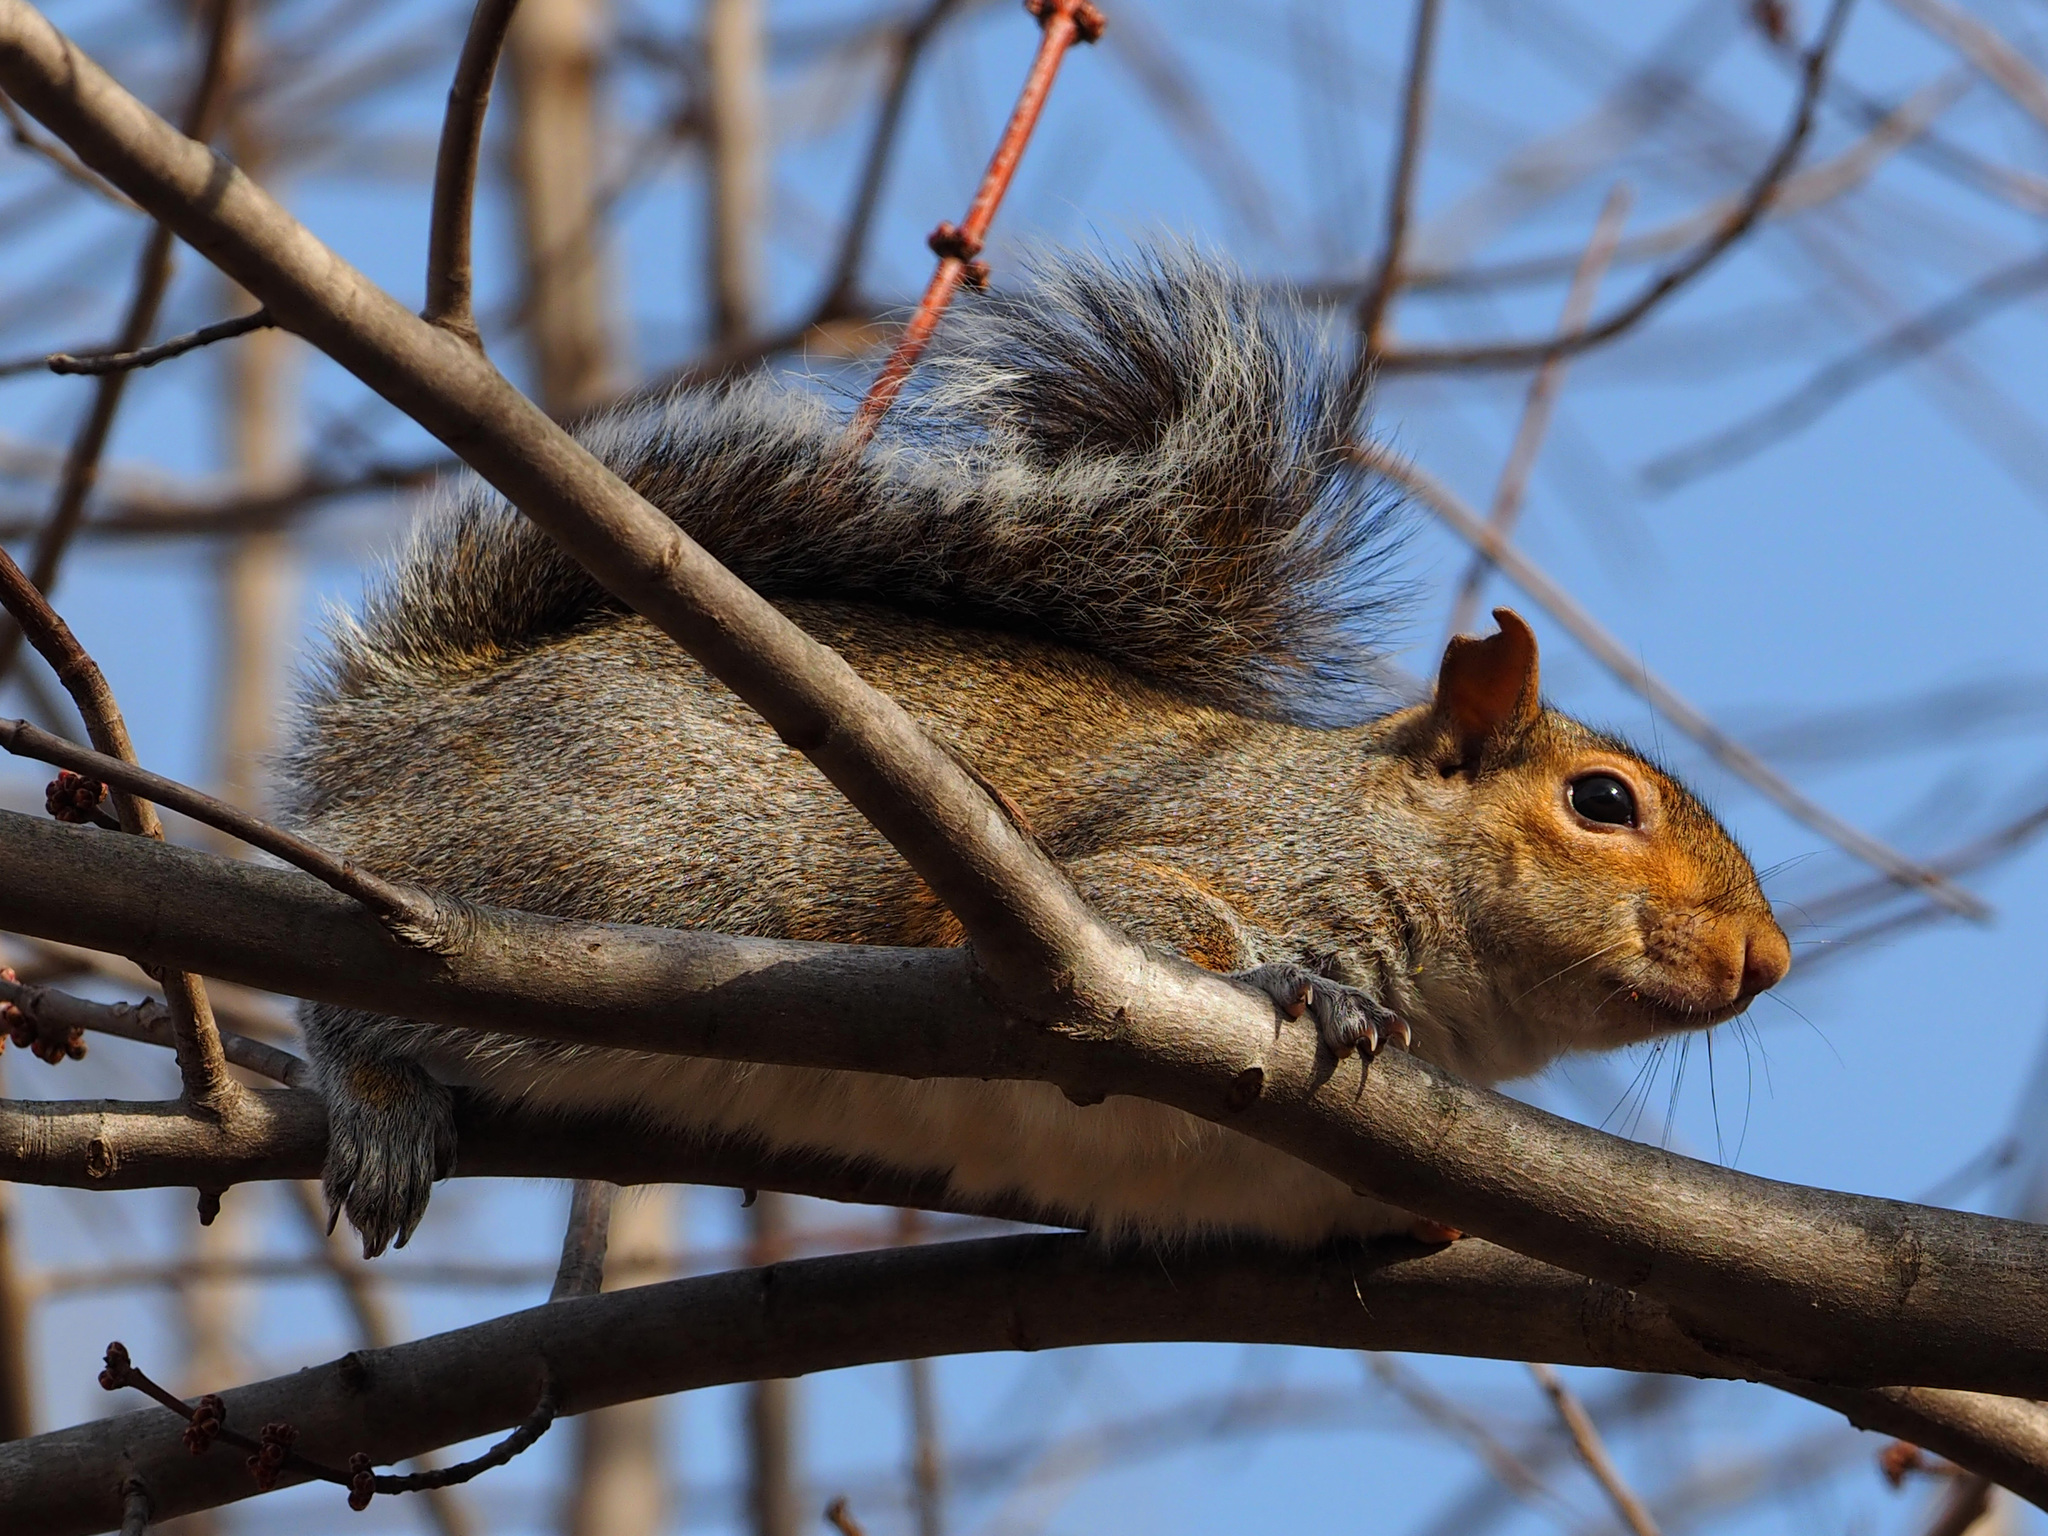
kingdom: Animalia
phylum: Chordata
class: Mammalia
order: Rodentia
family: Sciuridae
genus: Sciurus
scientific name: Sciurus carolinensis
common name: Eastern gray squirrel
